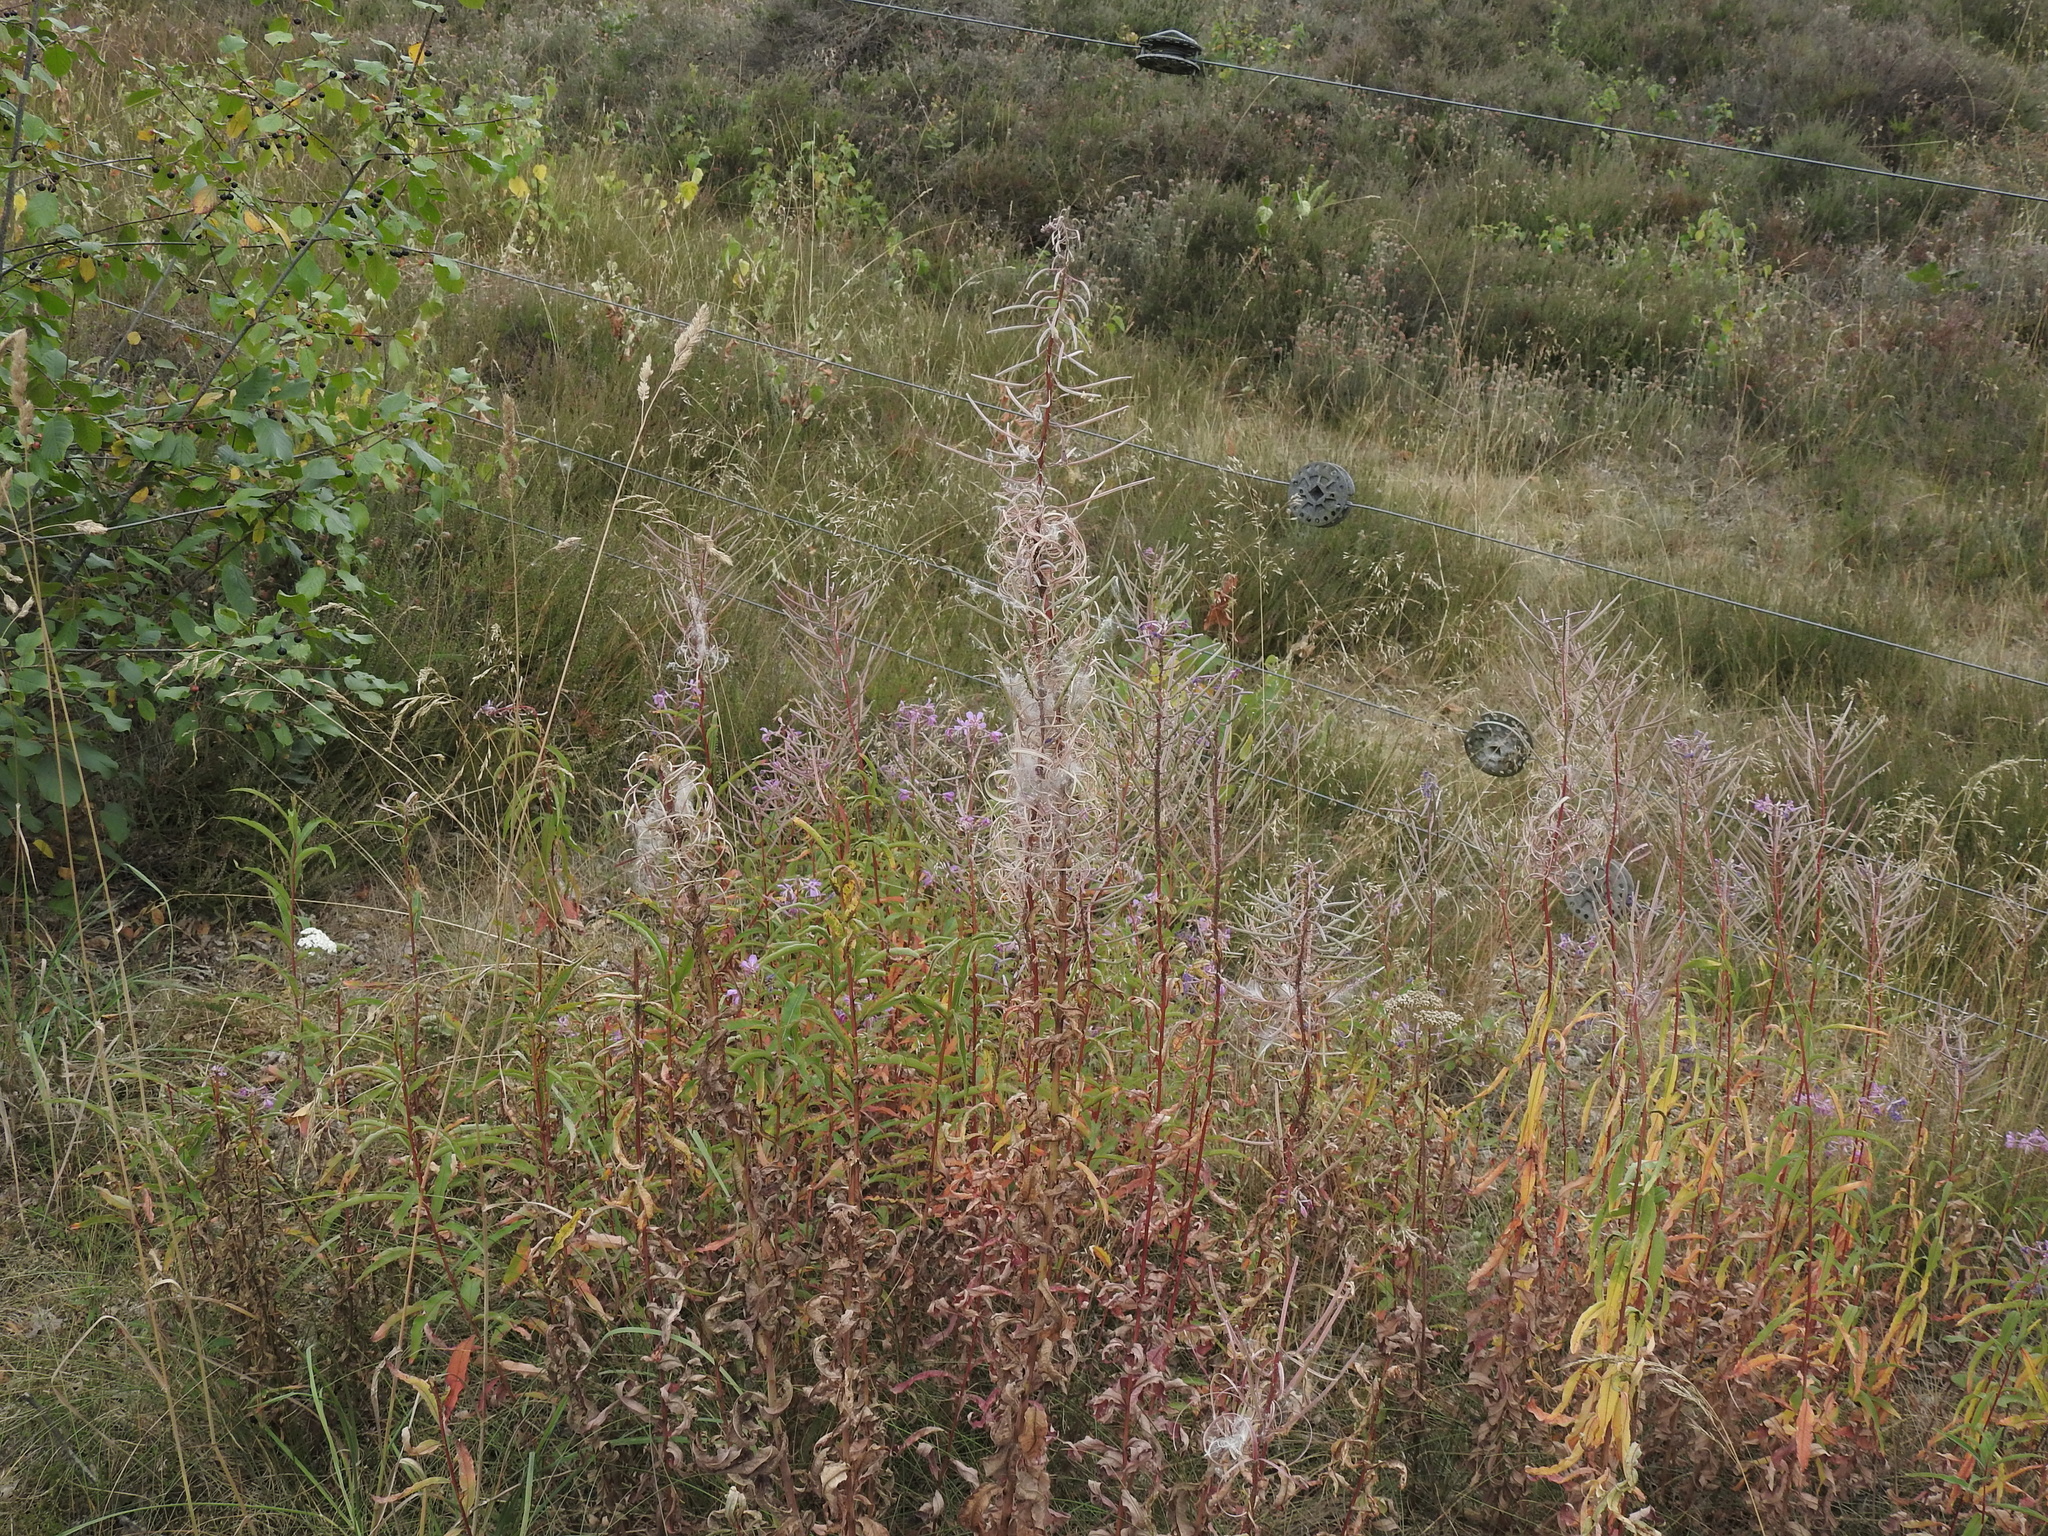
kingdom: Plantae
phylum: Tracheophyta
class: Magnoliopsida
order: Myrtales
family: Onagraceae
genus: Chamaenerion
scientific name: Chamaenerion angustifolium
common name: Fireweed
